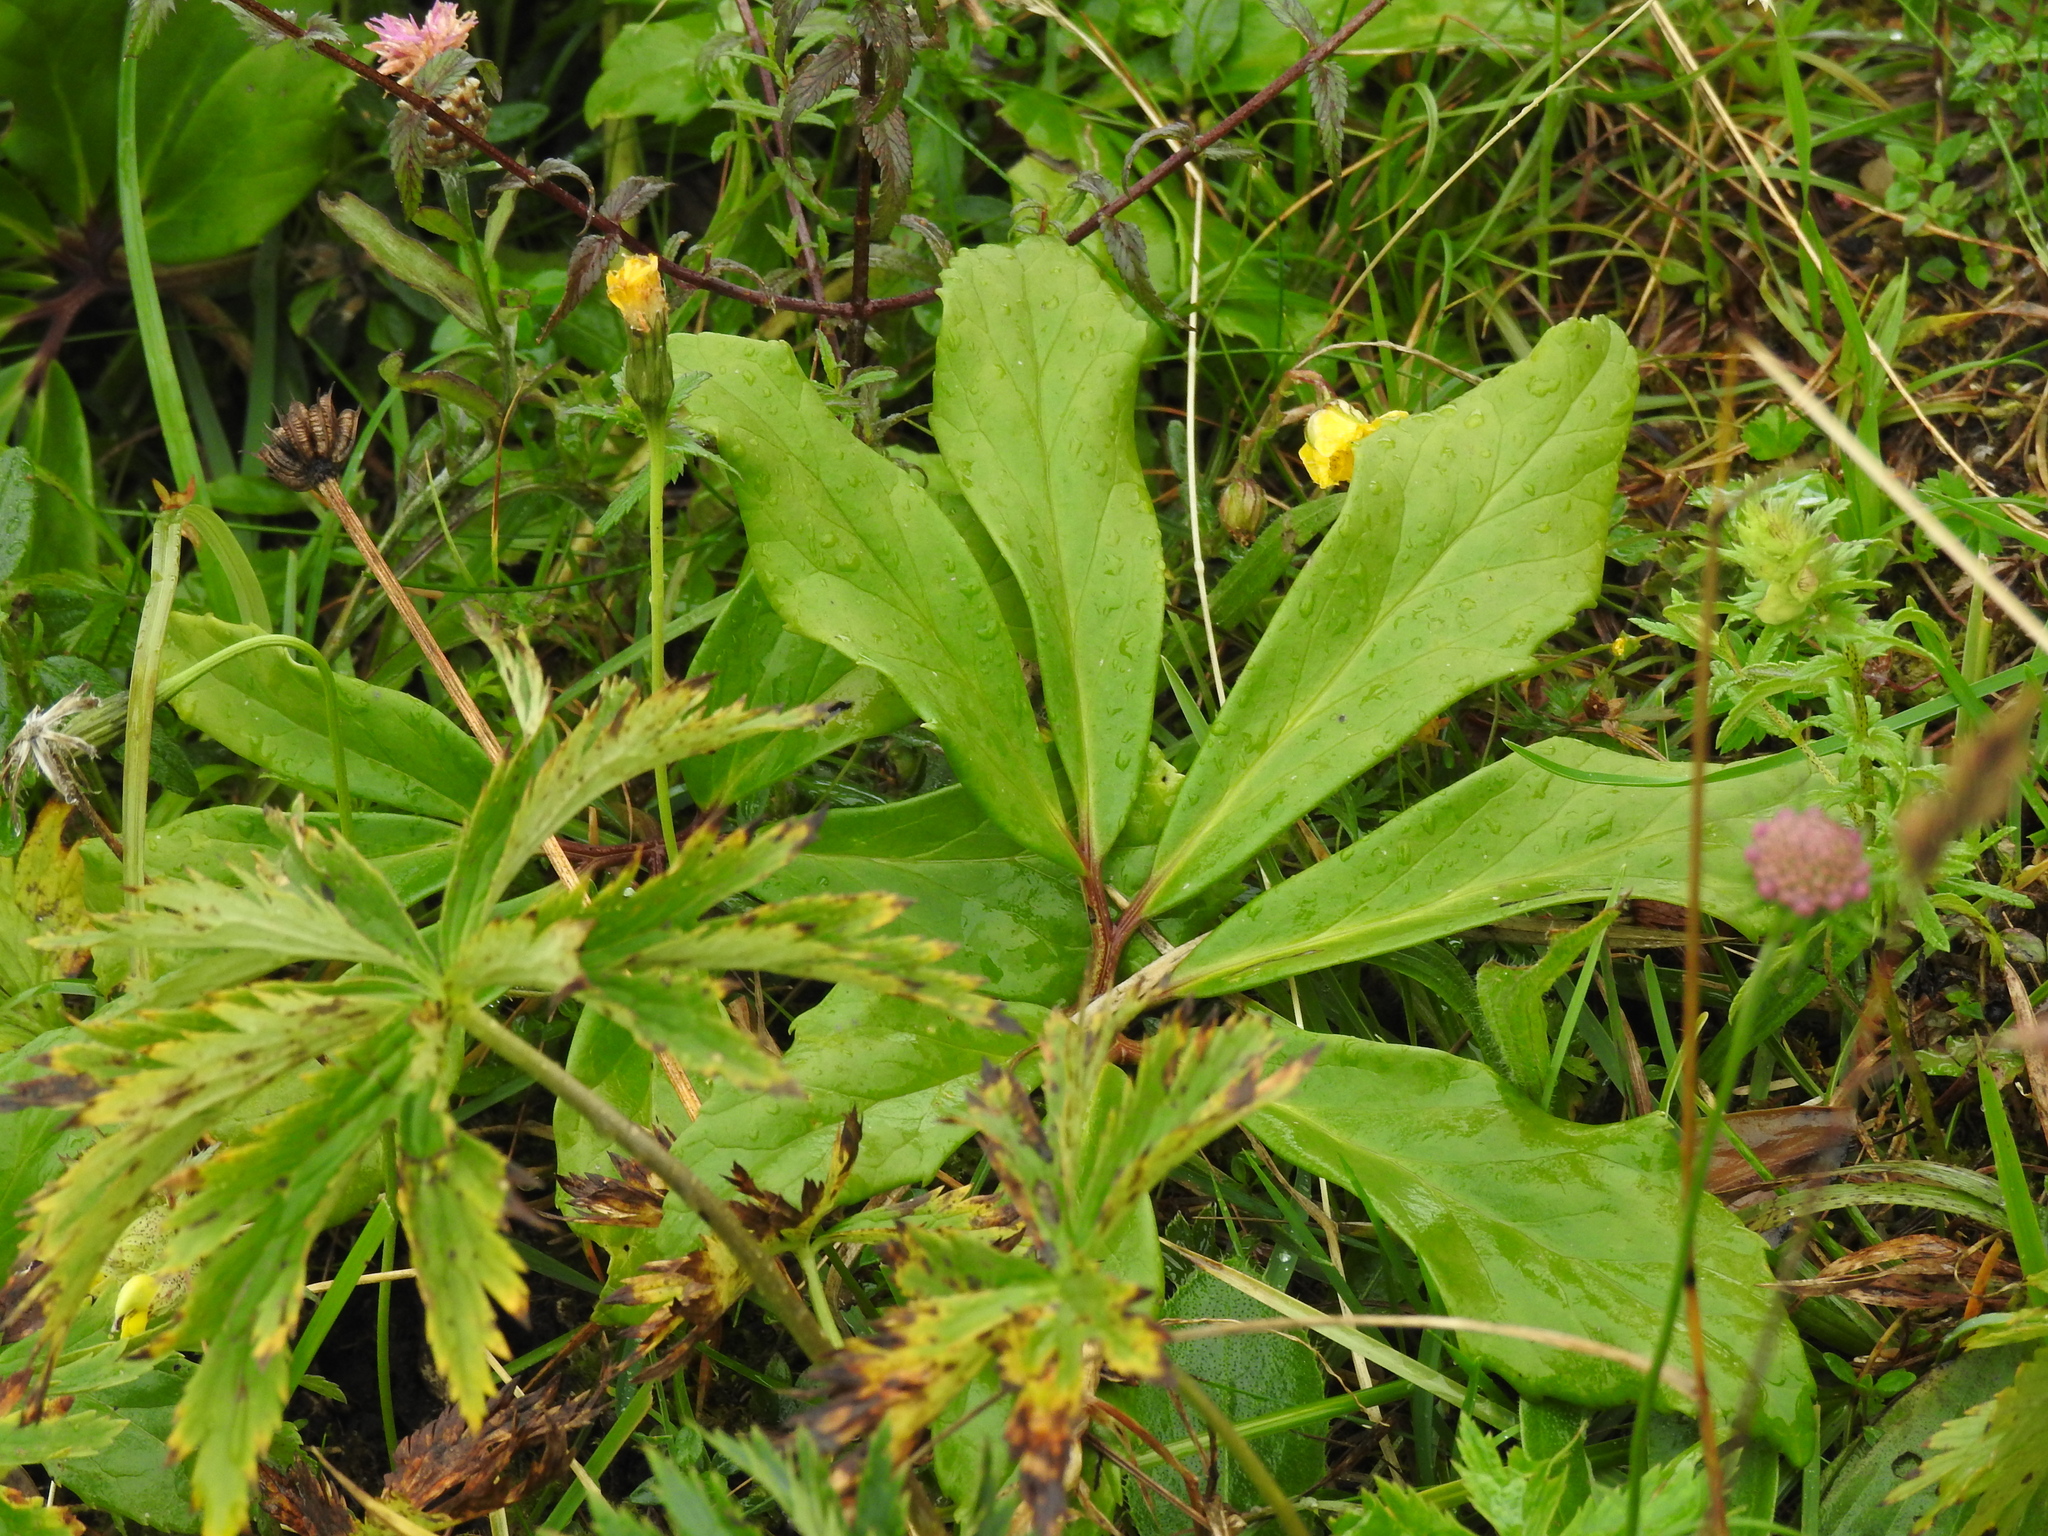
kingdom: Plantae
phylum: Tracheophyta
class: Magnoliopsida
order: Ranunculales
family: Ranunculaceae
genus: Helleborus
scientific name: Helleborus niger
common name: Black hellebore
